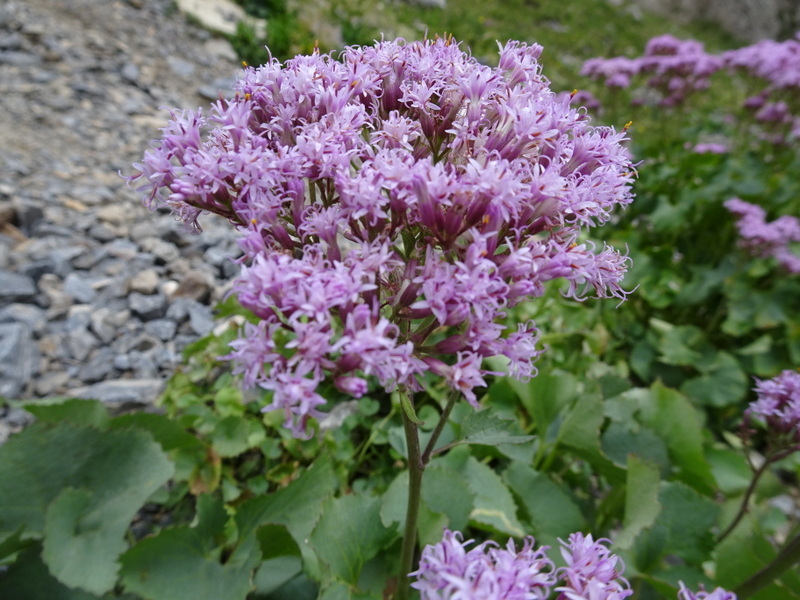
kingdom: Plantae
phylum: Tracheophyta
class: Magnoliopsida
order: Asterales
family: Asteraceae
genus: Adenostyles
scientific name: Adenostyles alliariae
